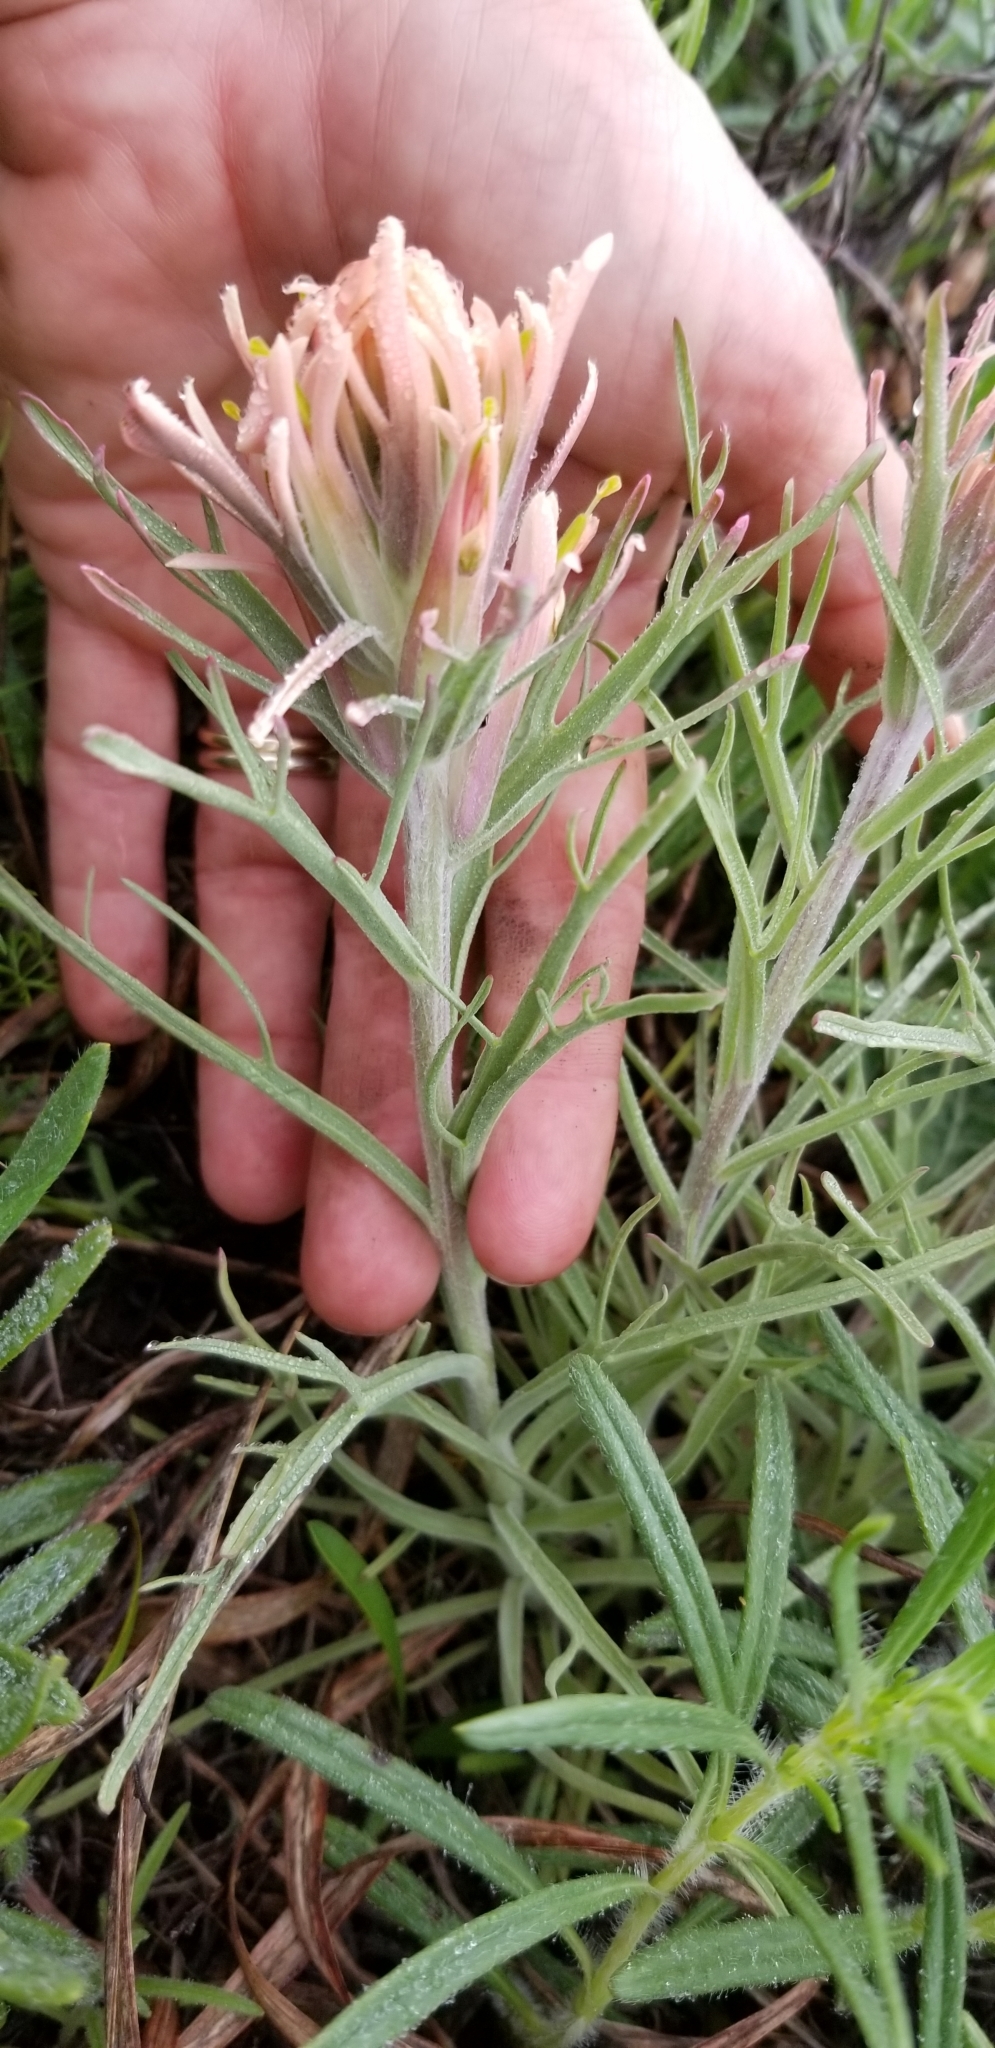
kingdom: Plantae
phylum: Tracheophyta
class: Magnoliopsida
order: Lamiales
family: Orobanchaceae
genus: Castilleja
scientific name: Castilleja purpurea
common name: Plains paintbrush
